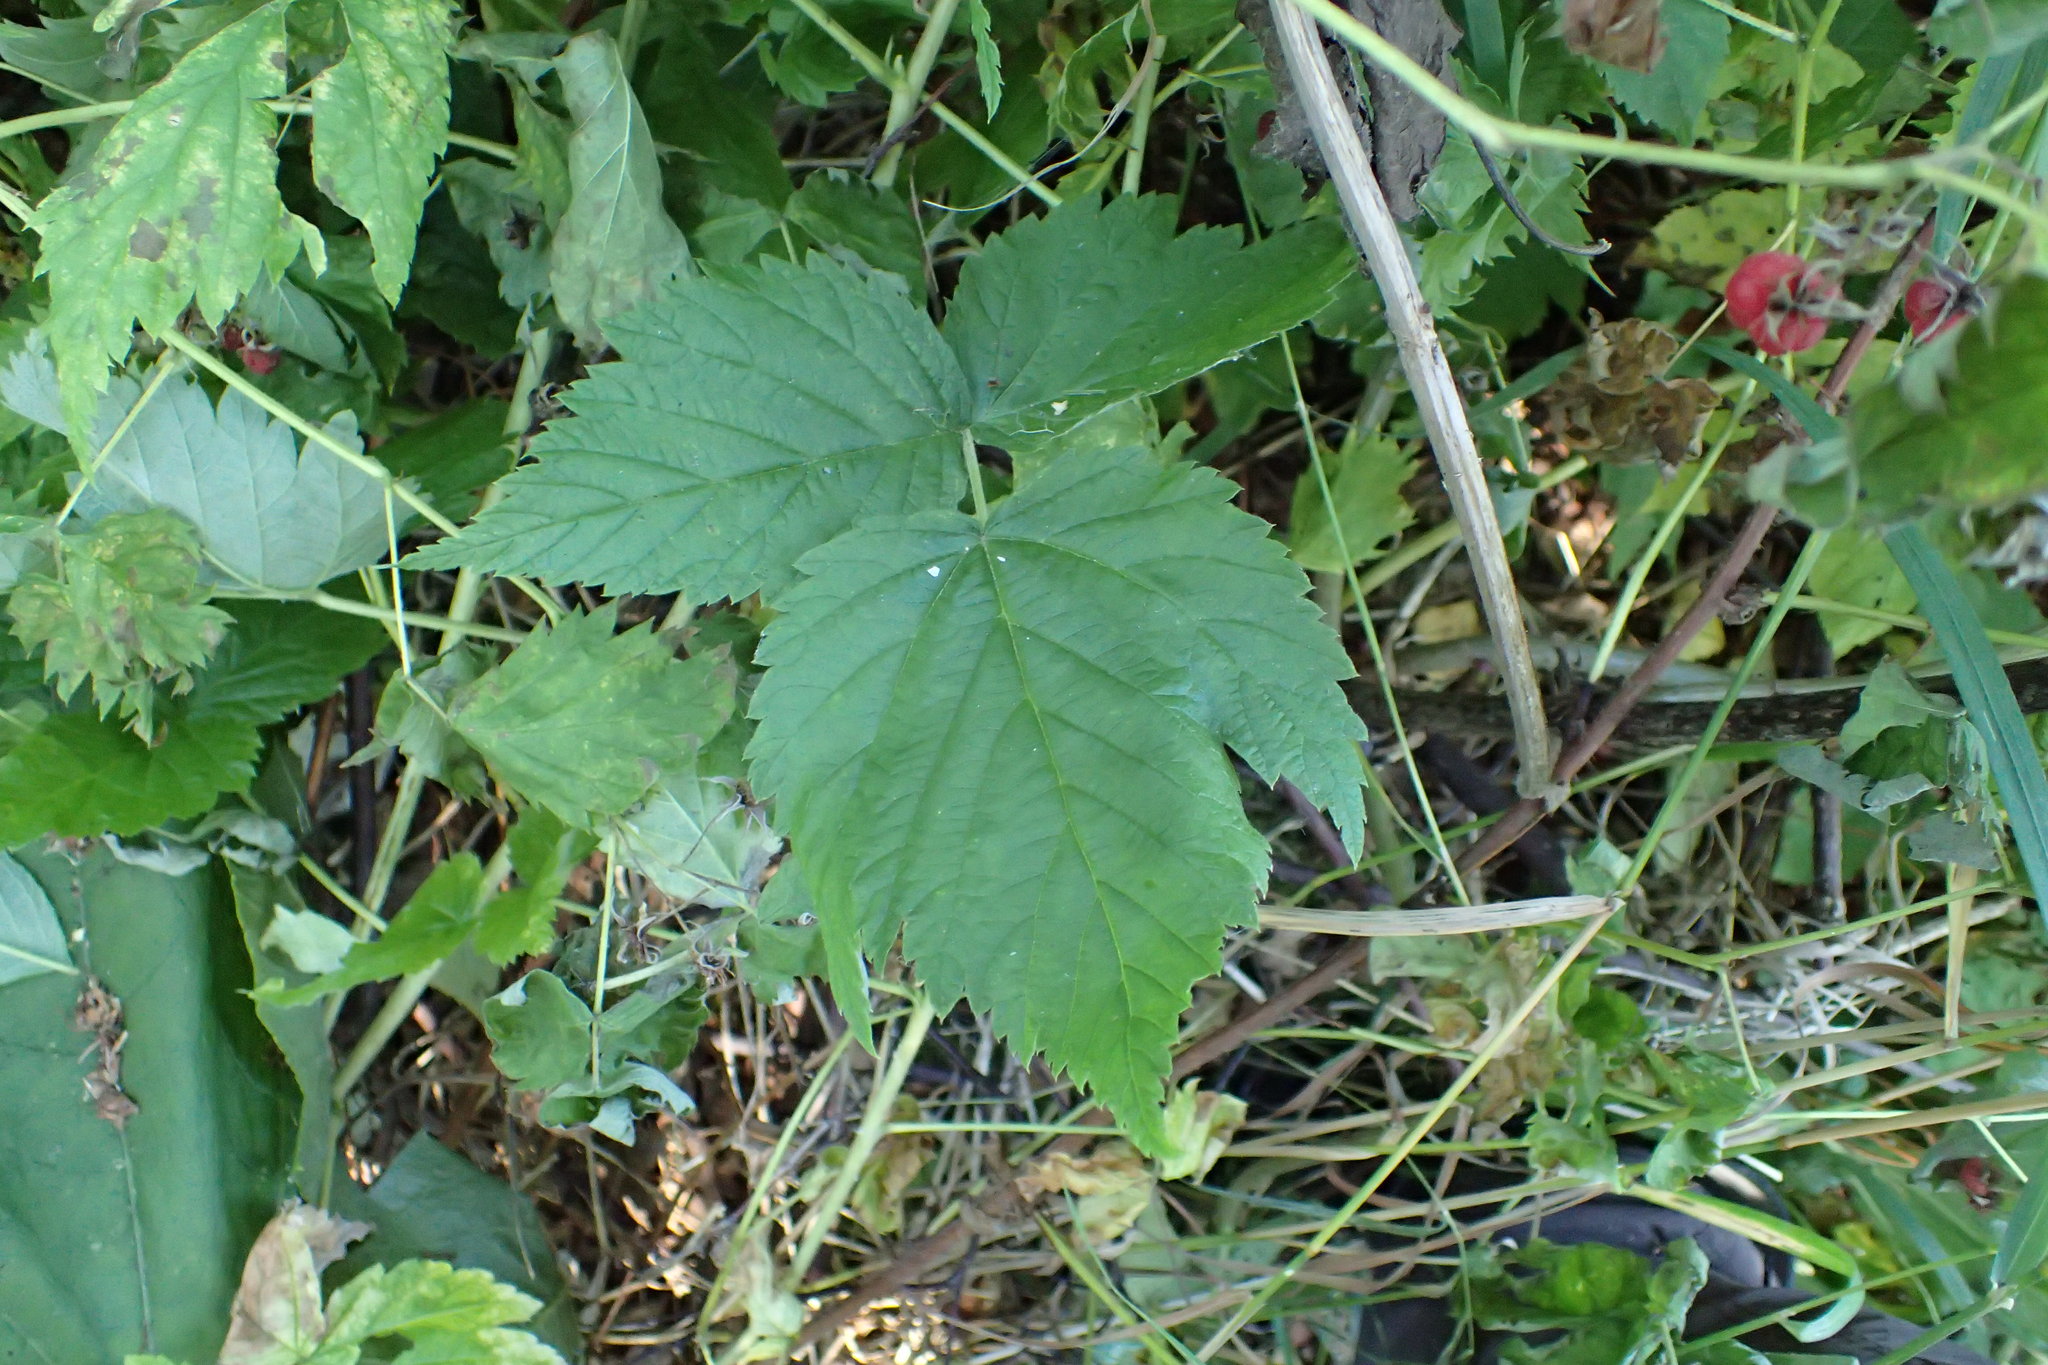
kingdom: Plantae
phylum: Tracheophyta
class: Magnoliopsida
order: Rosales
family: Rosaceae
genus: Rubus
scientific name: Rubus idaeus
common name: Raspberry
